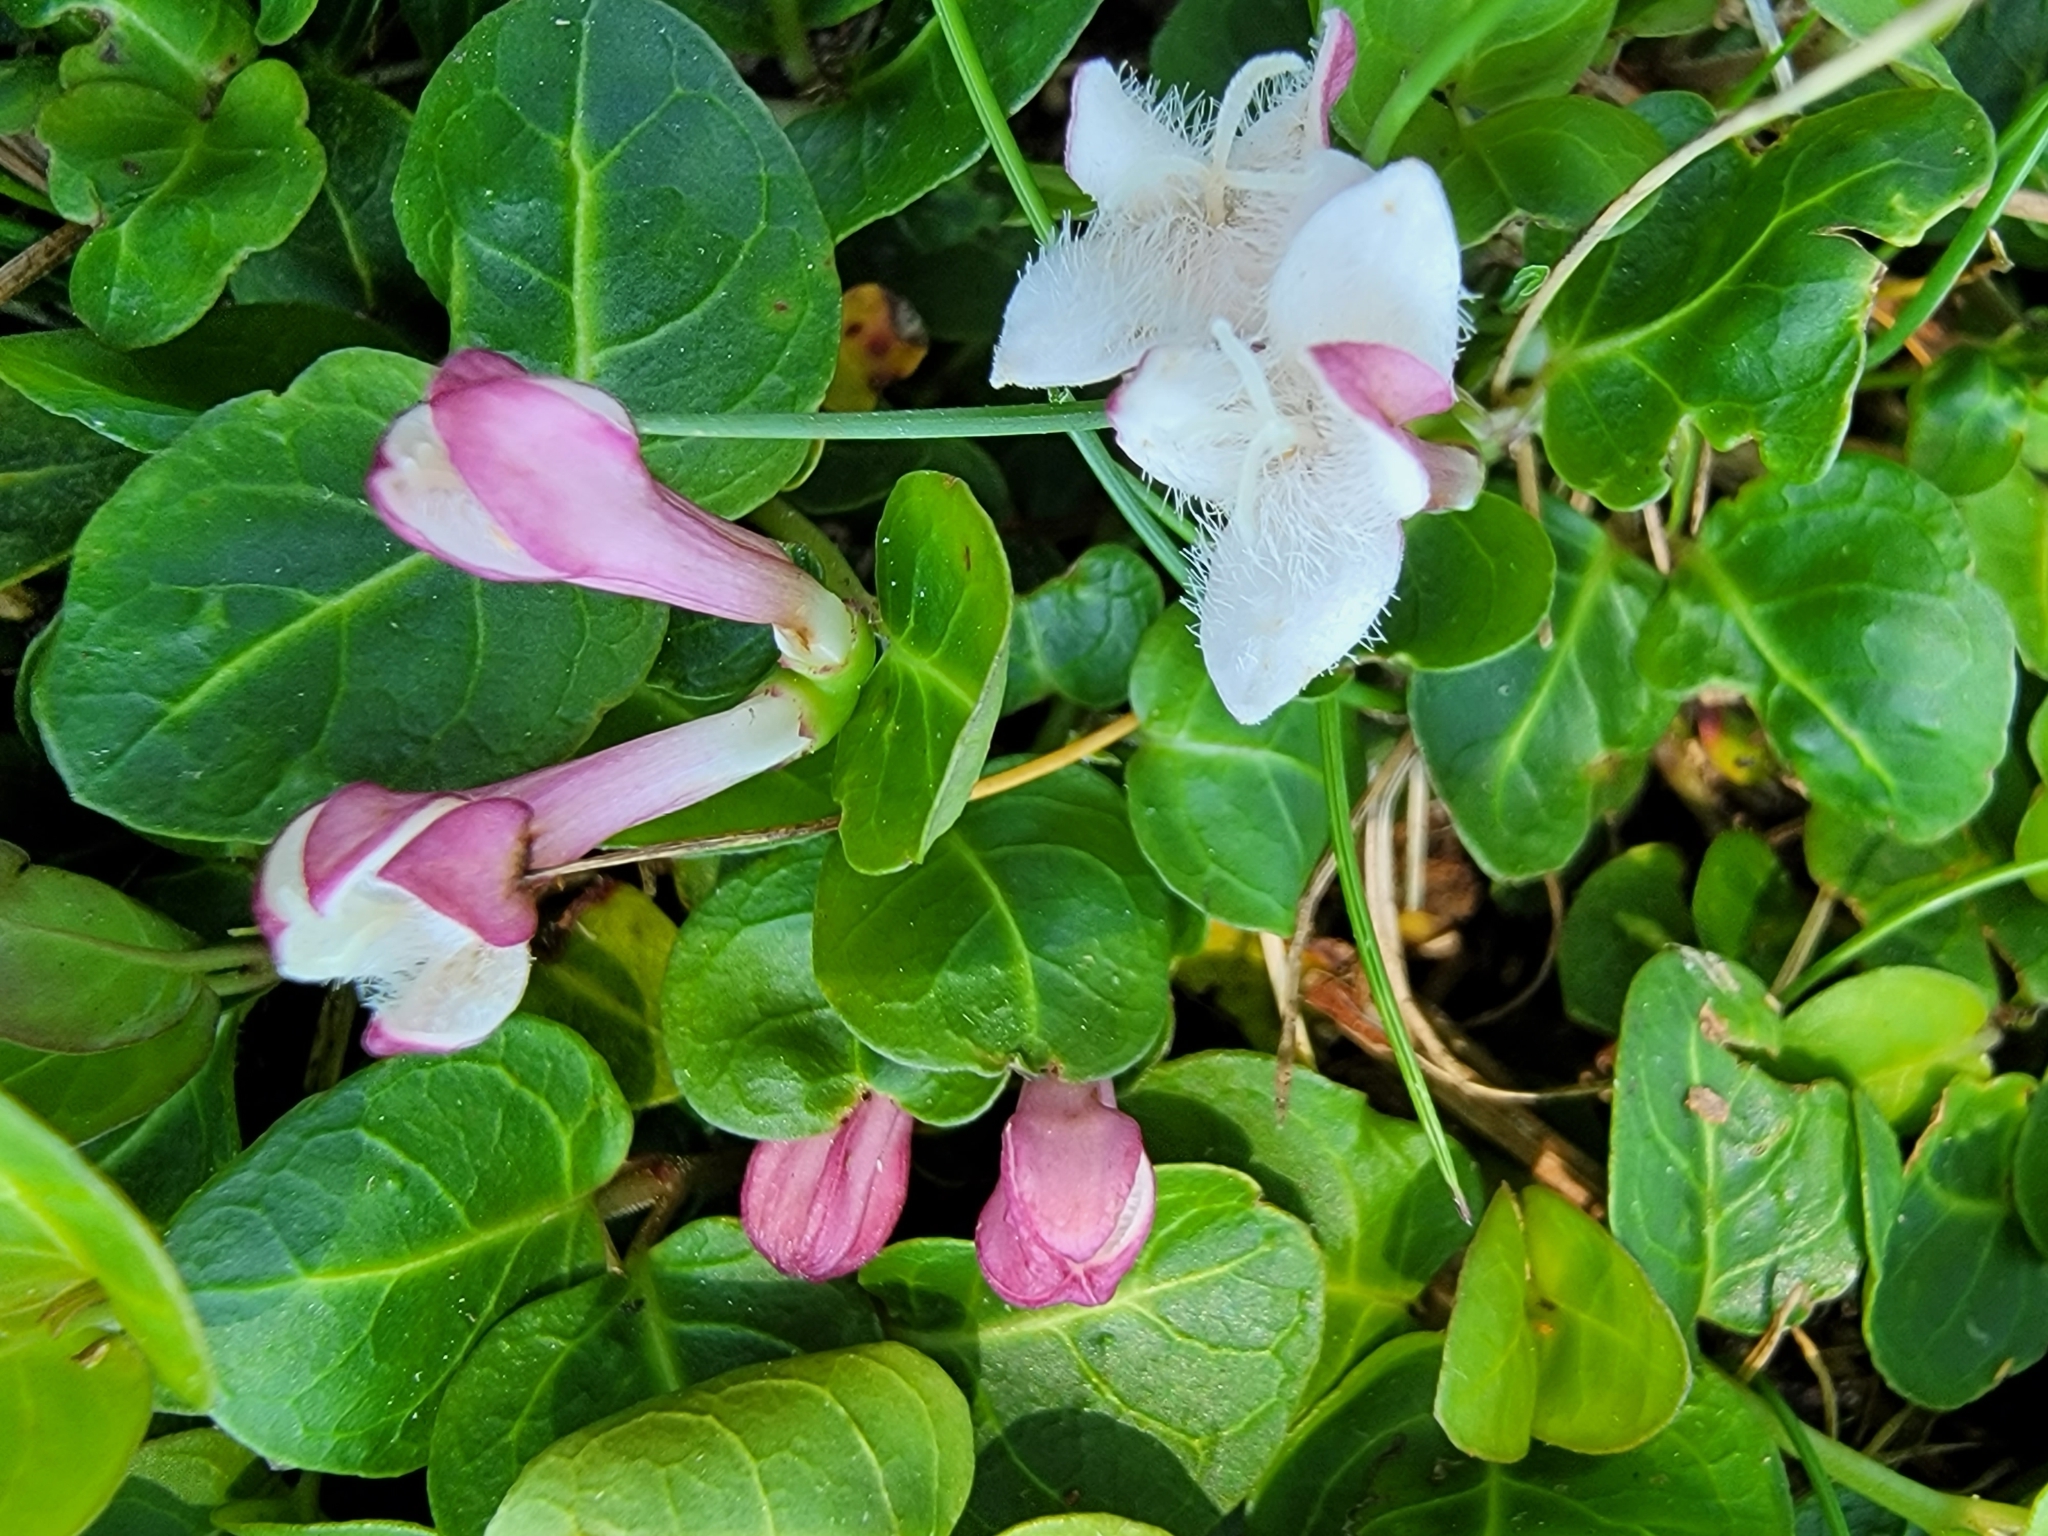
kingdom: Plantae
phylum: Tracheophyta
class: Magnoliopsida
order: Gentianales
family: Rubiaceae
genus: Mitchella
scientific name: Mitchella repens
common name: Partridge-berry
